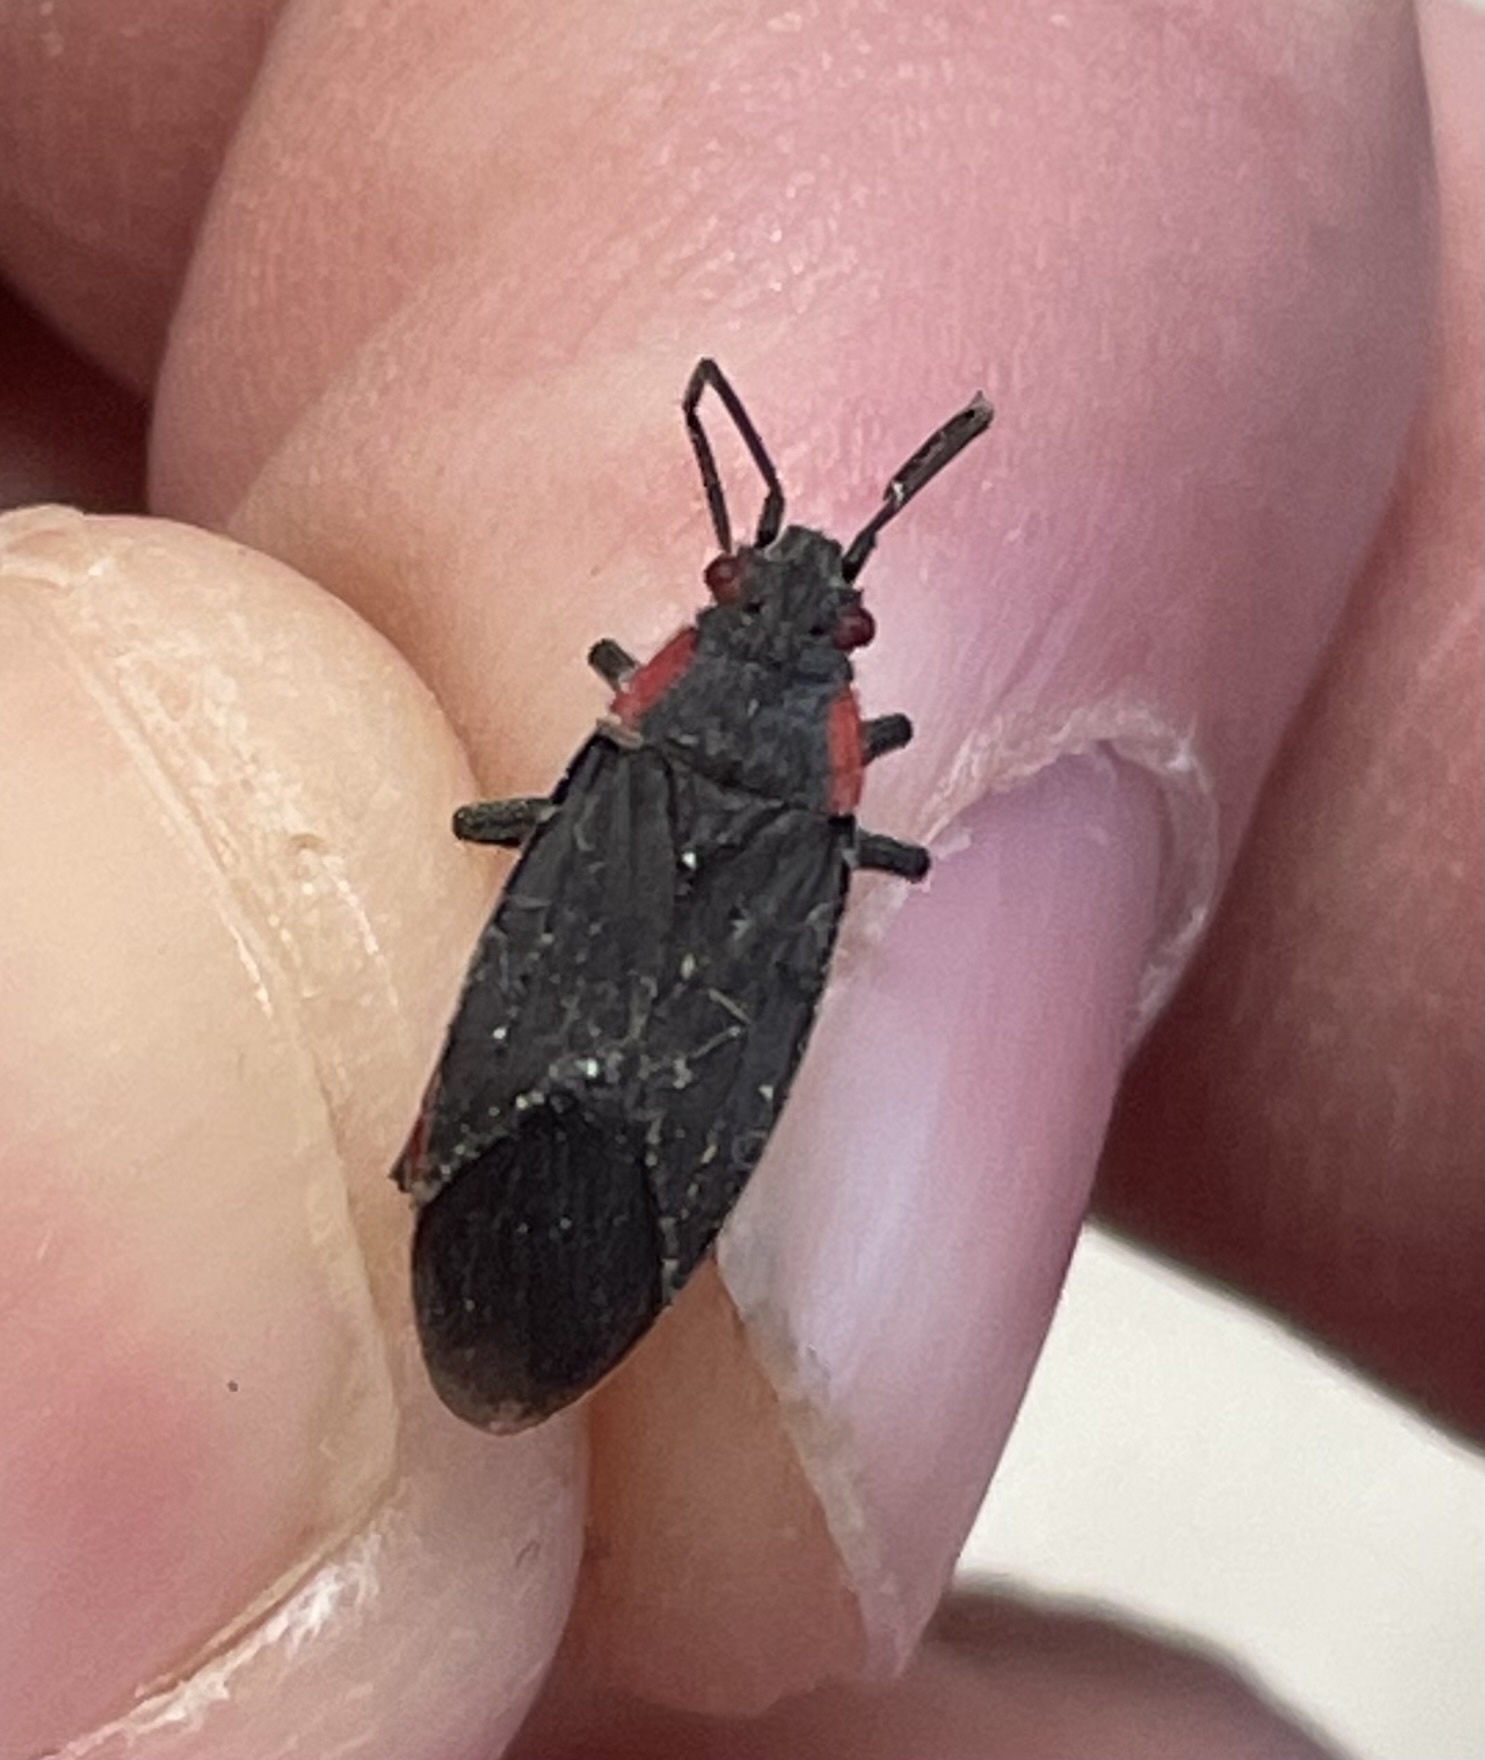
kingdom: Animalia
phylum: Arthropoda
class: Insecta
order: Hemiptera
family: Rhopalidae
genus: Jadera
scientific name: Jadera haematoloma
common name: Red-shouldered bug
